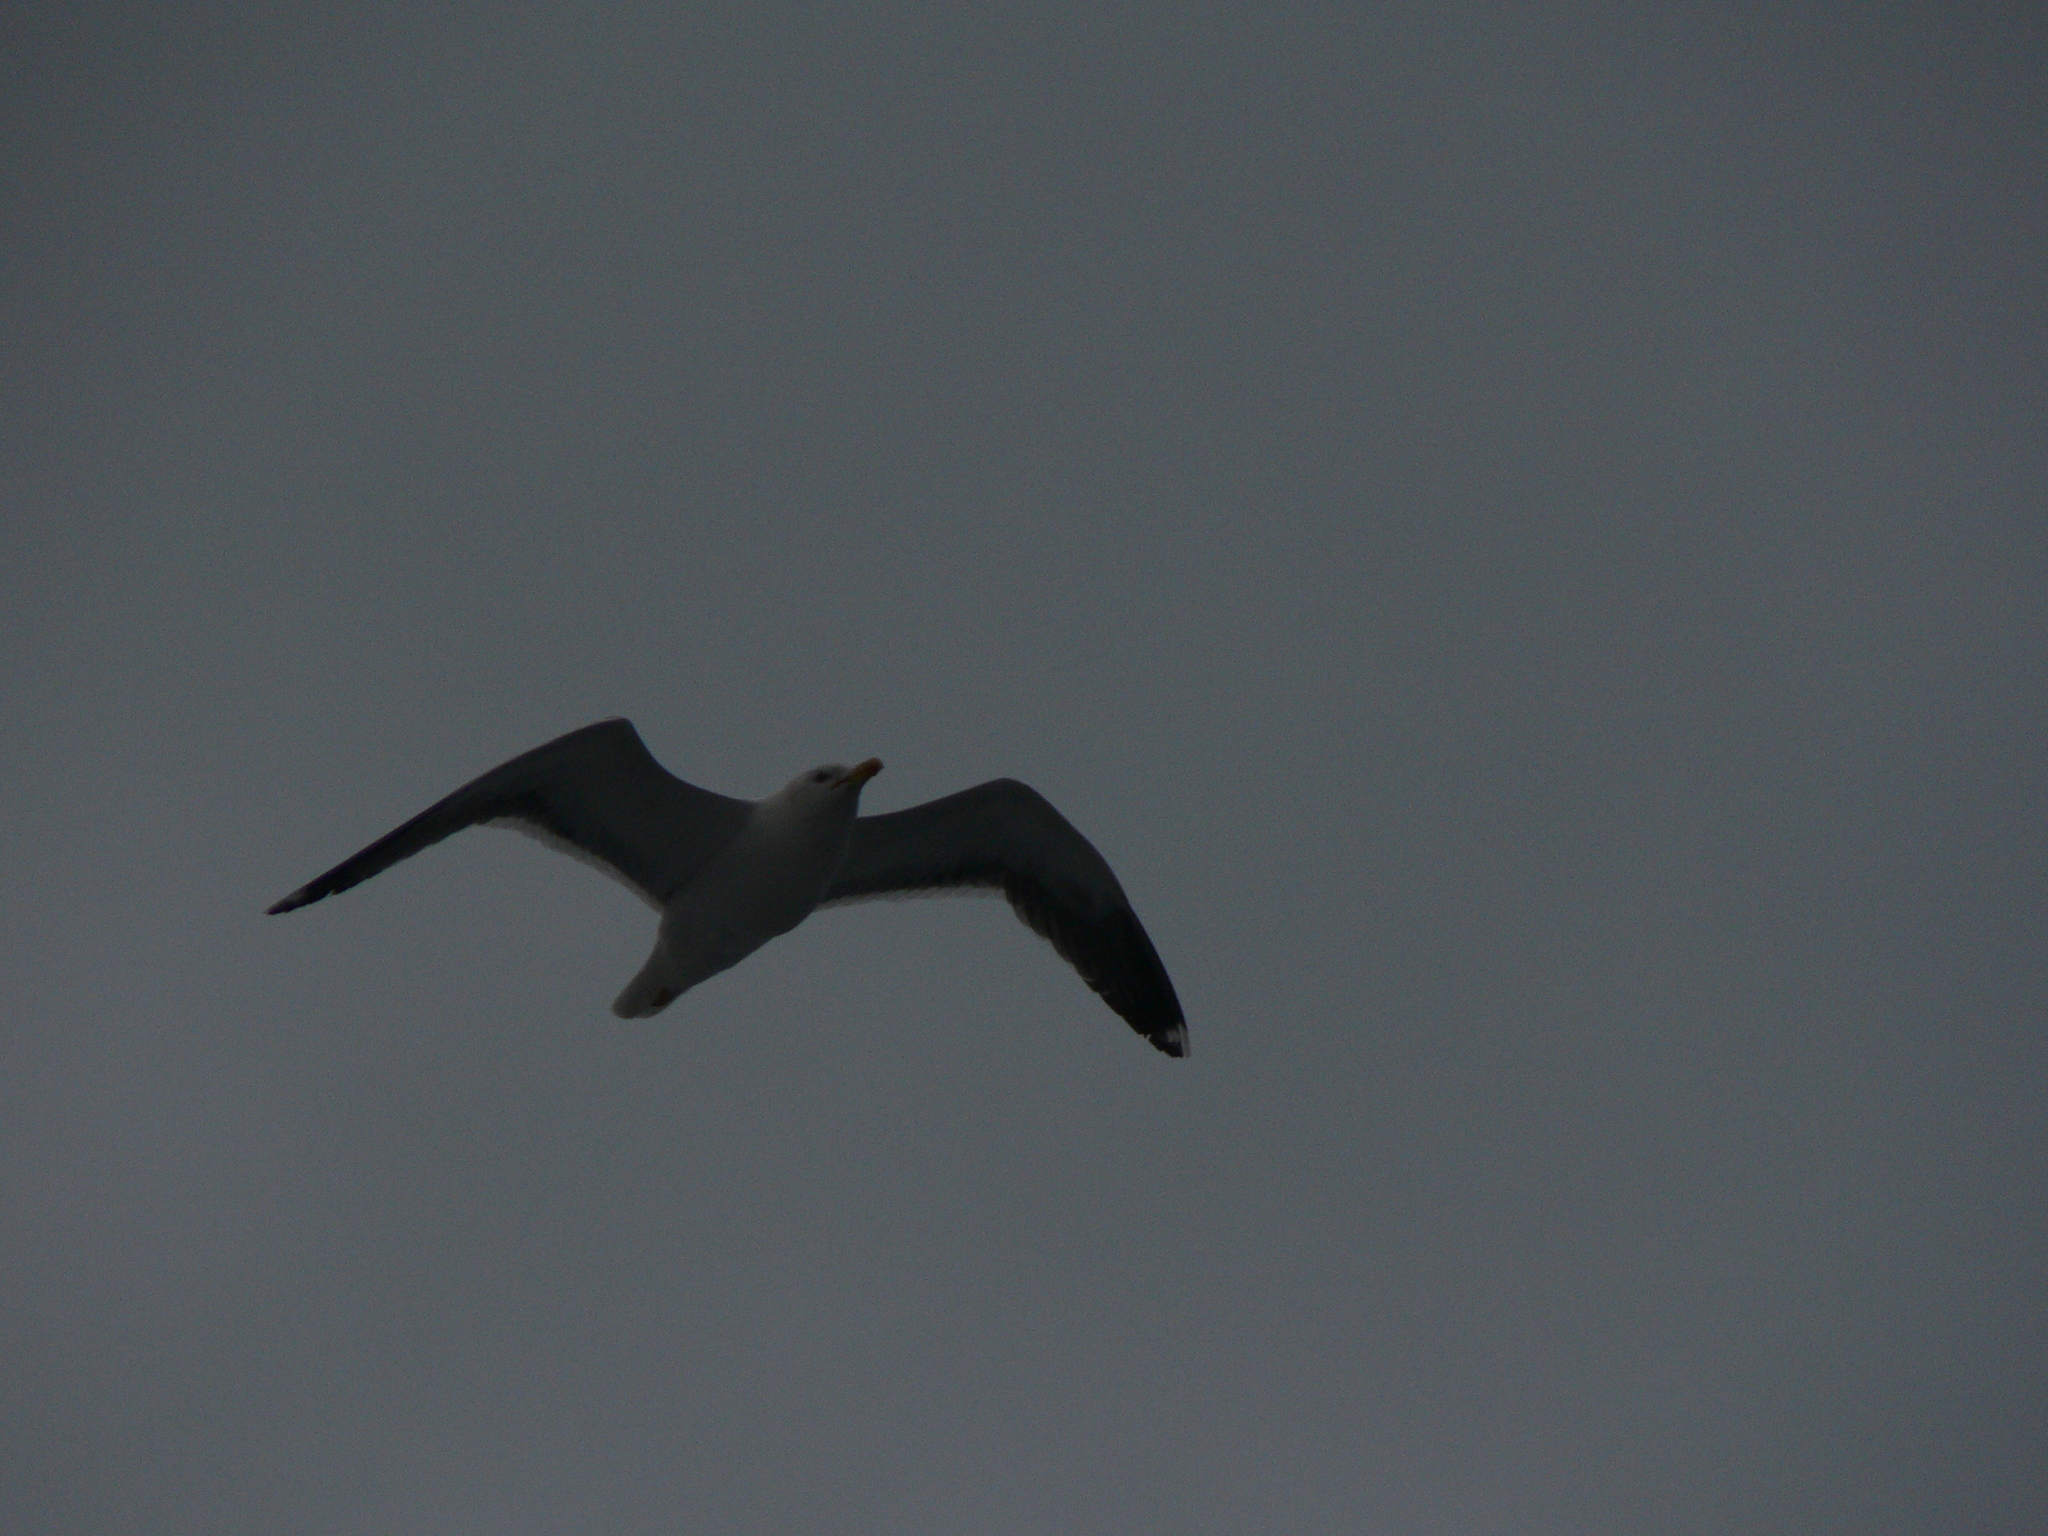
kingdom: Animalia
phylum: Chordata
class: Aves
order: Charadriiformes
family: Laridae
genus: Larus
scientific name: Larus fuscus
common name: Lesser black-backed gull
